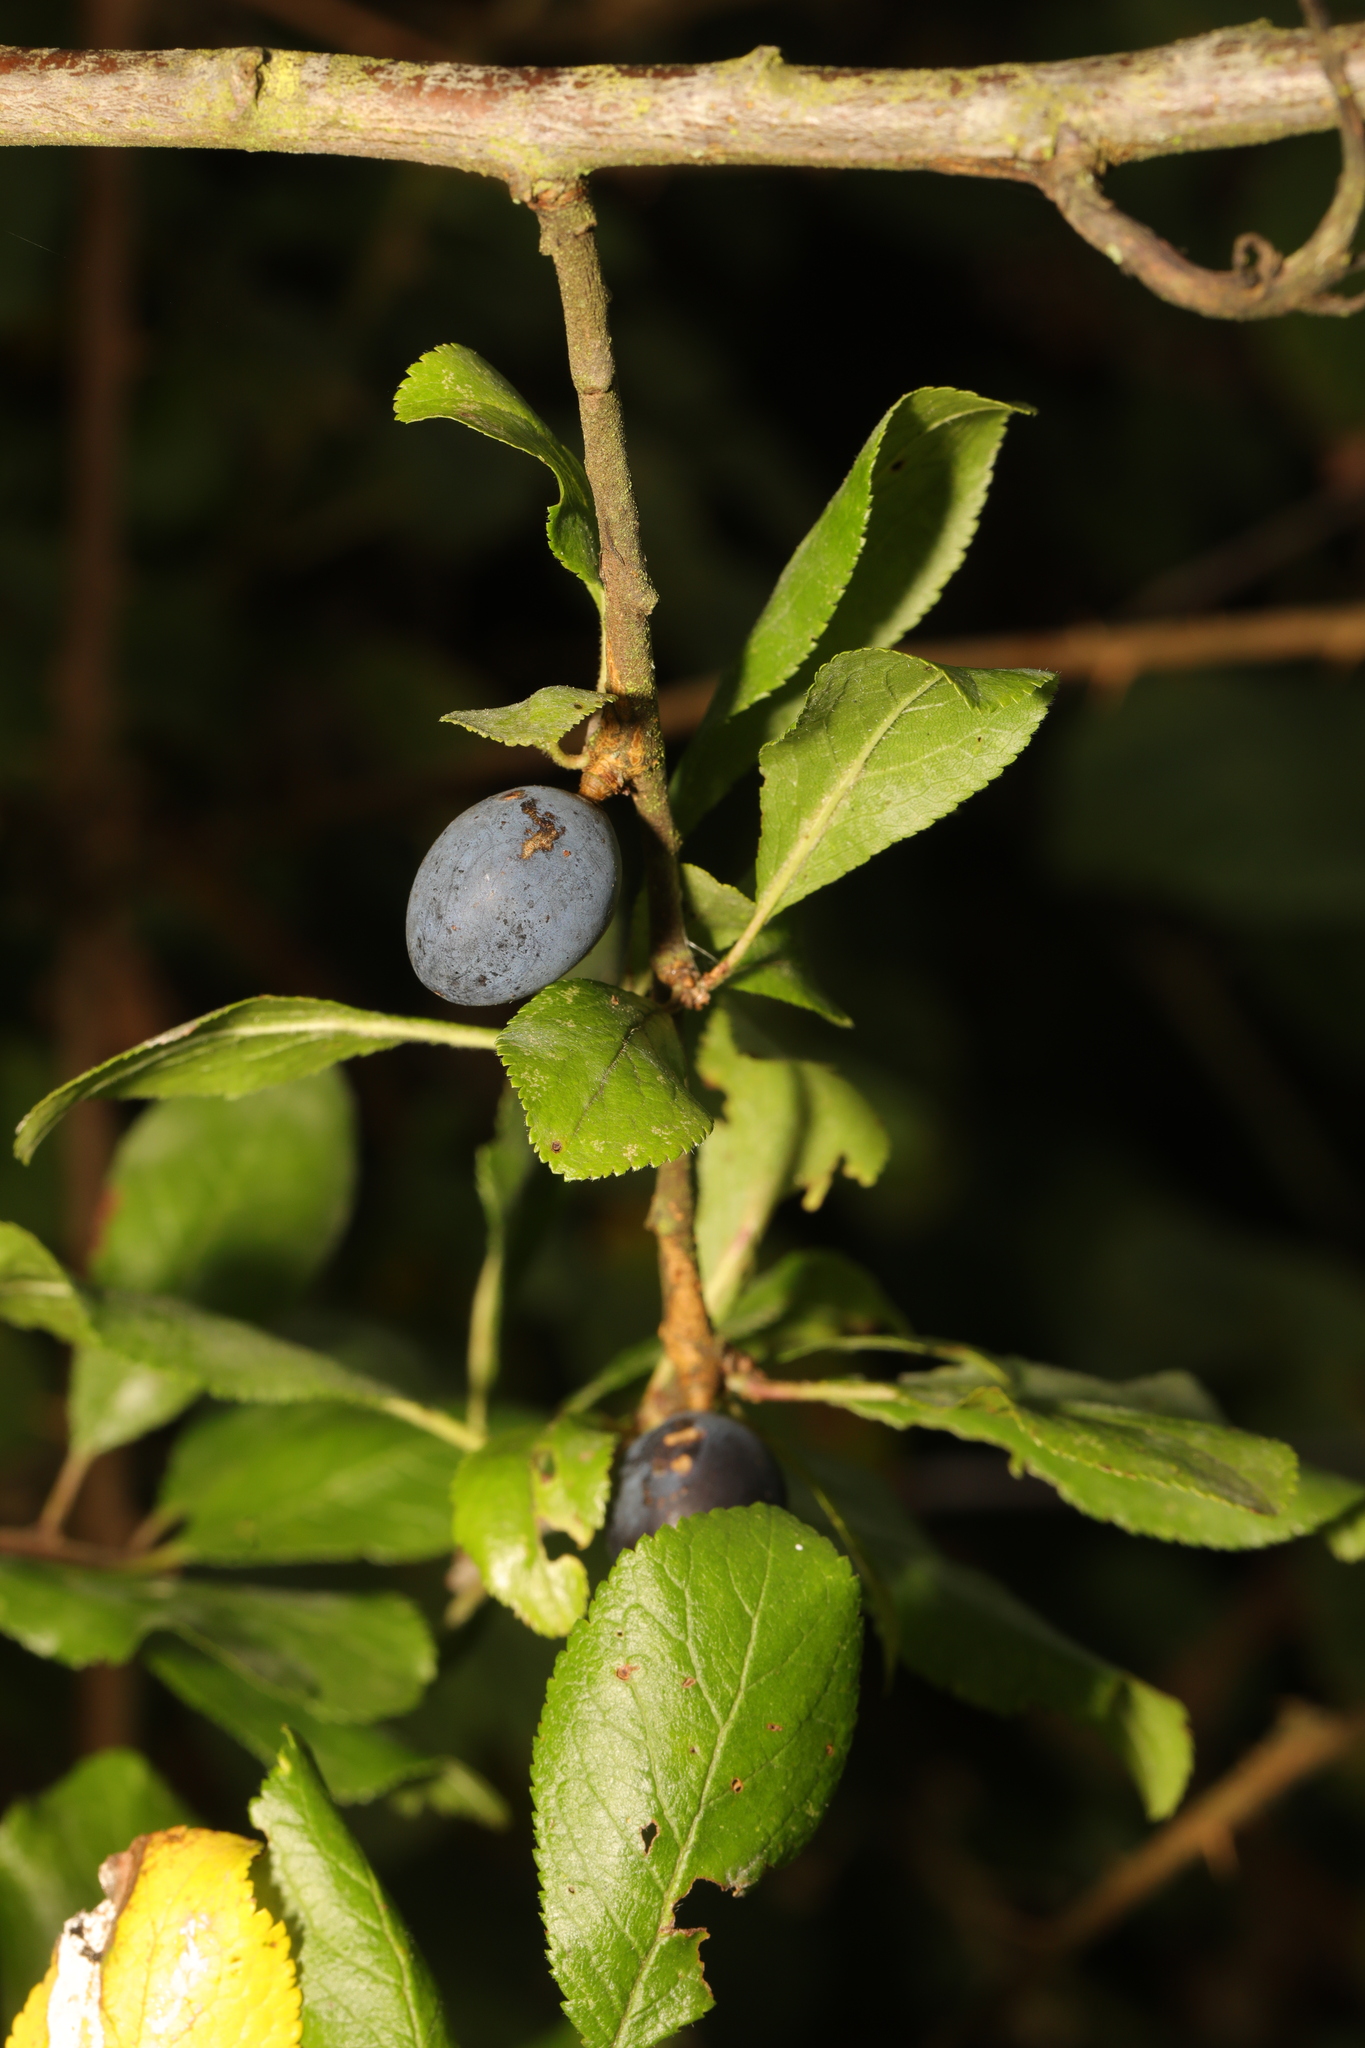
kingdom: Plantae
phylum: Tracheophyta
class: Magnoliopsida
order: Rosales
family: Rosaceae
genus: Prunus
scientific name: Prunus spinosa
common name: Blackthorn
